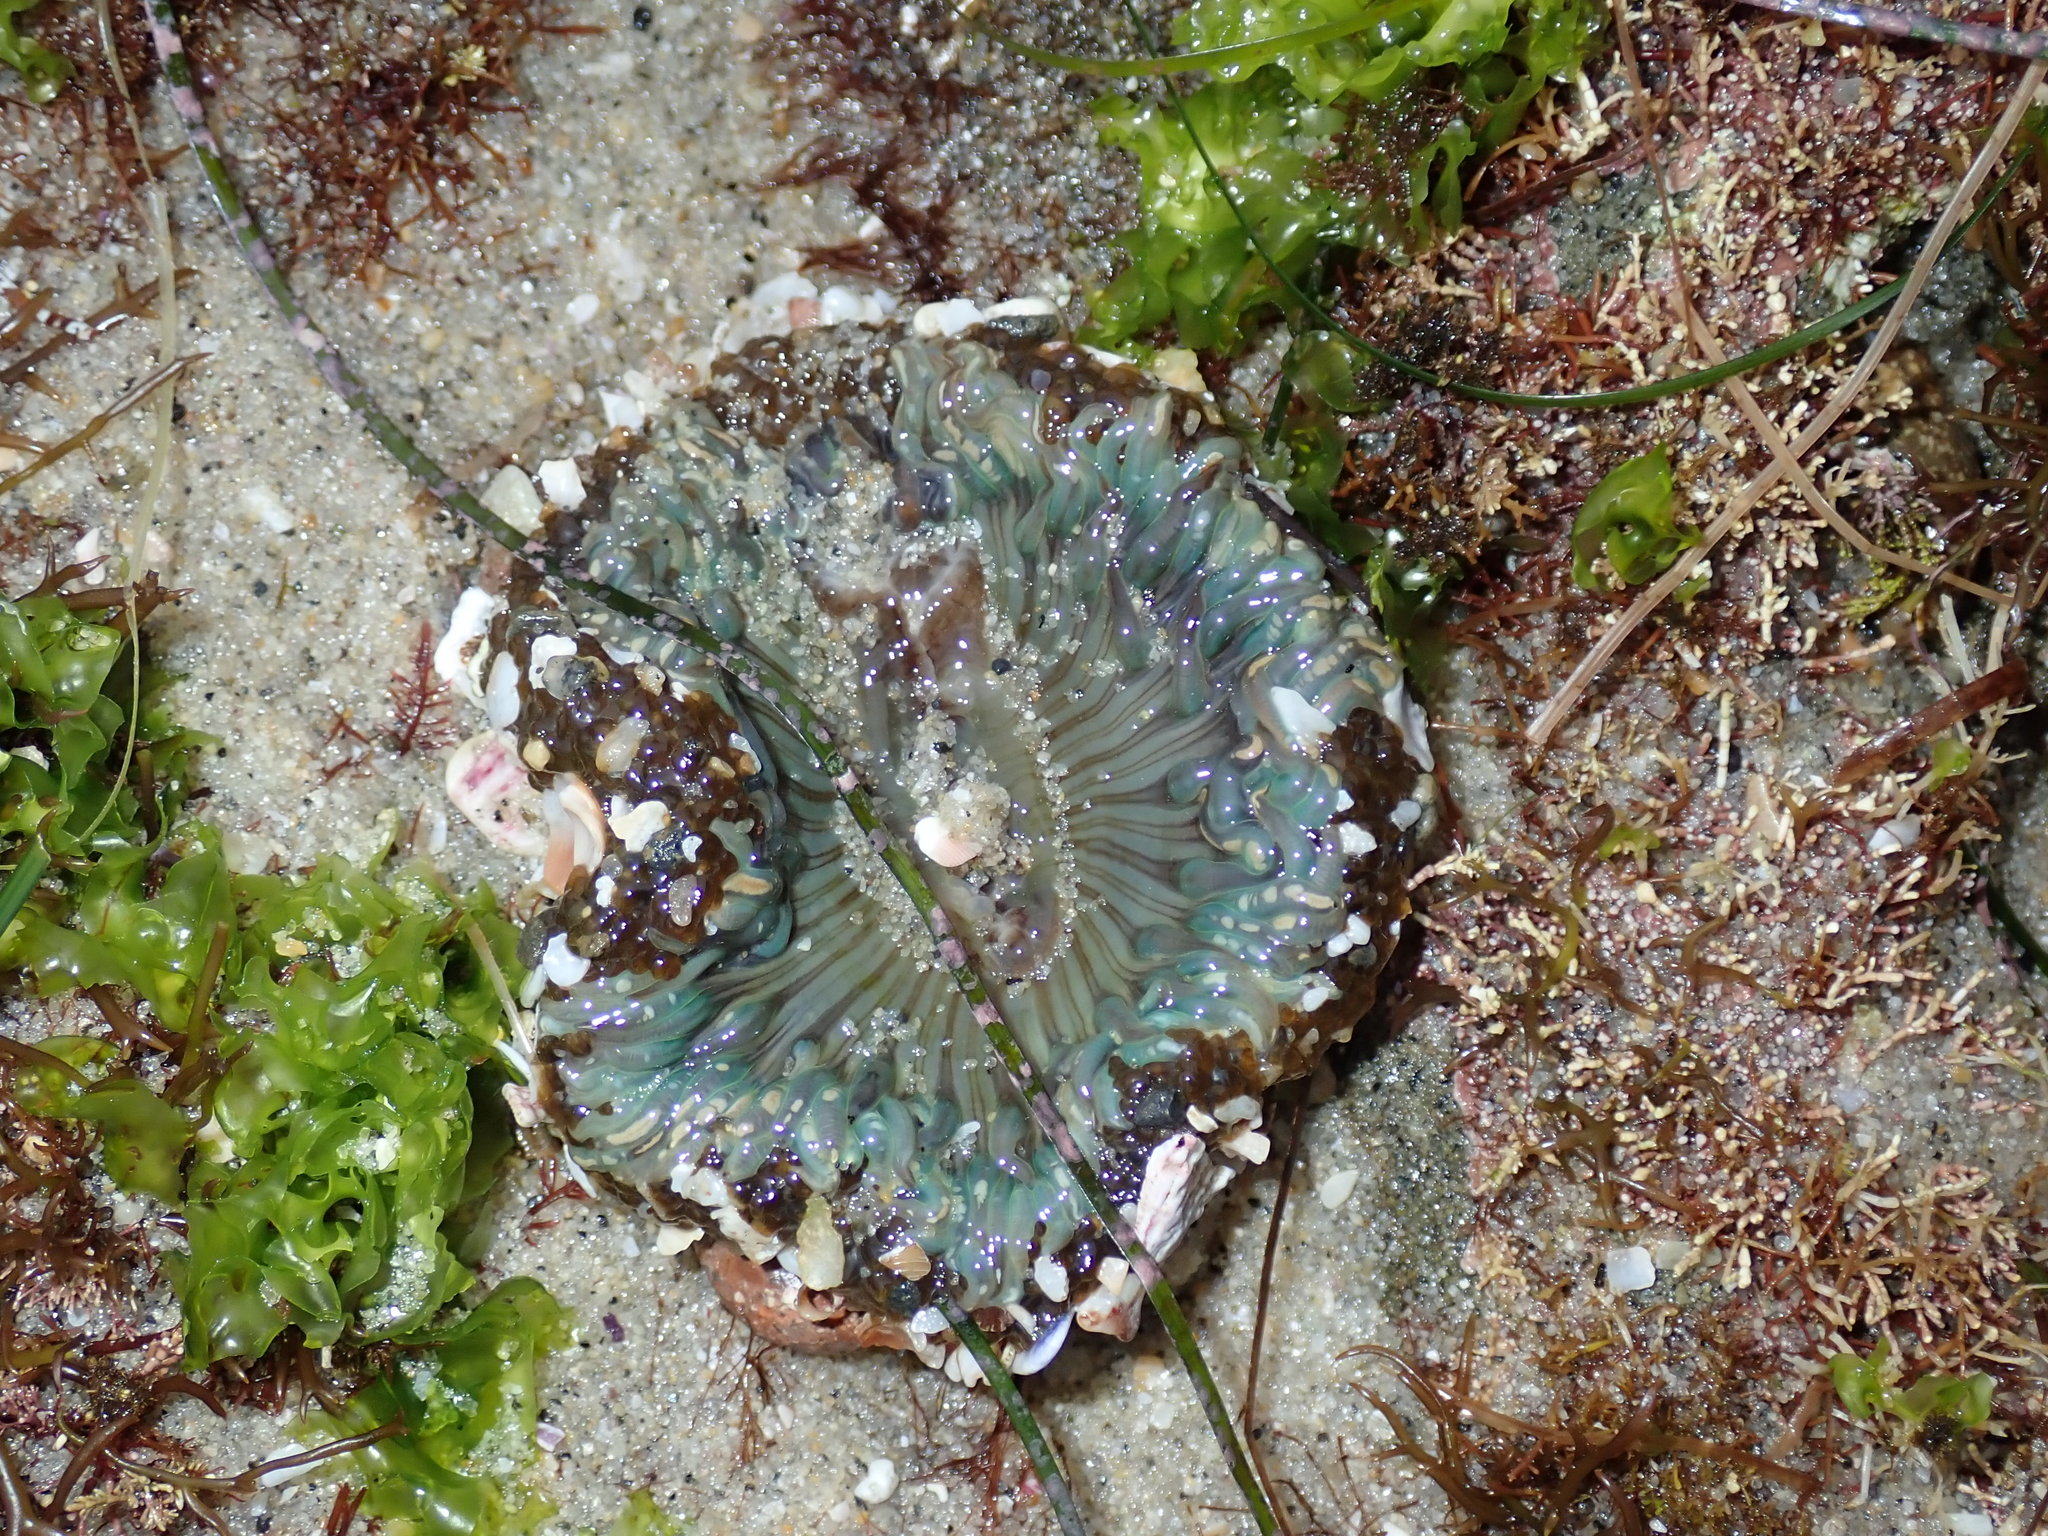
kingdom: Animalia
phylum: Cnidaria
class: Anthozoa
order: Actiniaria
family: Actiniidae
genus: Anthopleura
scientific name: Anthopleura sola
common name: Sun anemone
